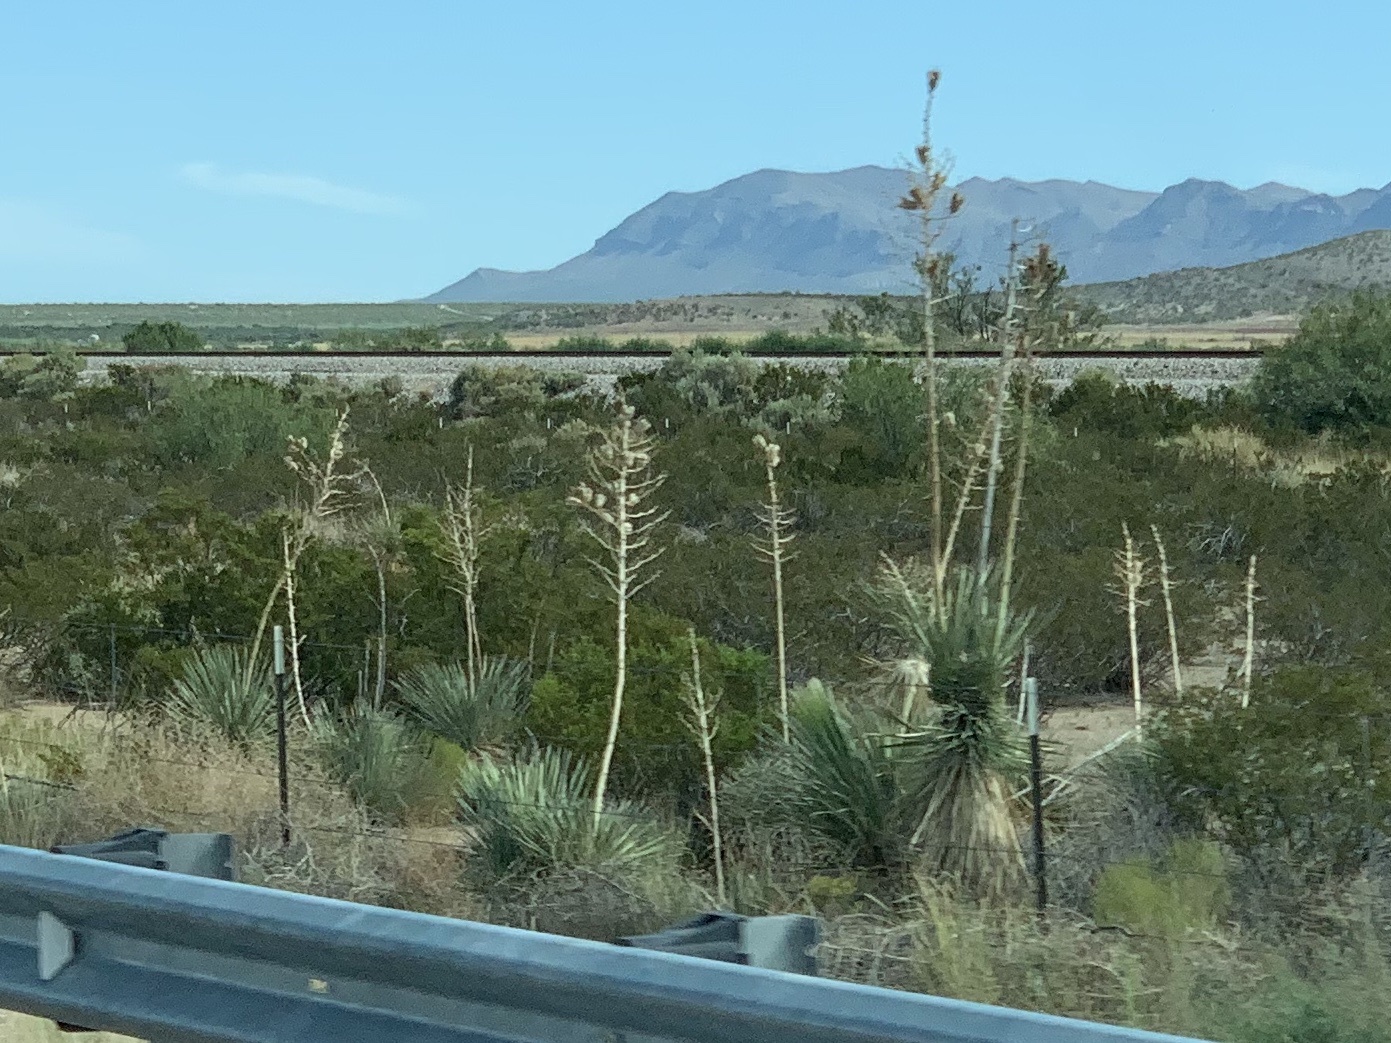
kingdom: Plantae
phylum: Tracheophyta
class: Liliopsida
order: Asparagales
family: Asparagaceae
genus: Yucca
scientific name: Yucca elata
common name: Palmella
